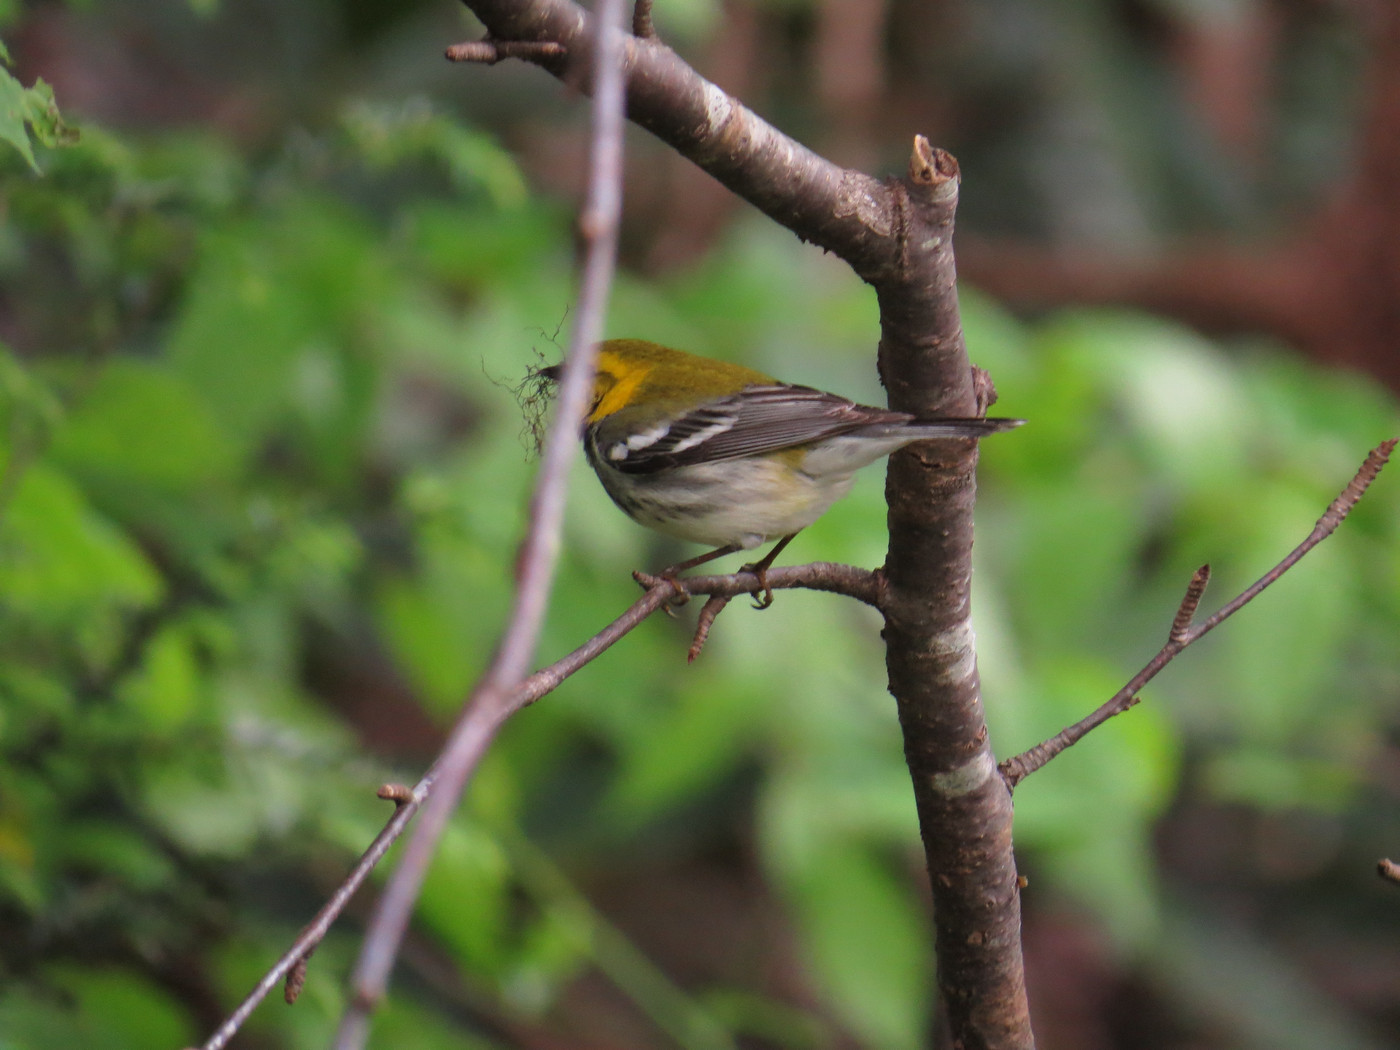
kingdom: Animalia
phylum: Chordata
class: Aves
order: Passeriformes
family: Parulidae
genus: Setophaga
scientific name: Setophaga virens
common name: Black-throated green warbler
